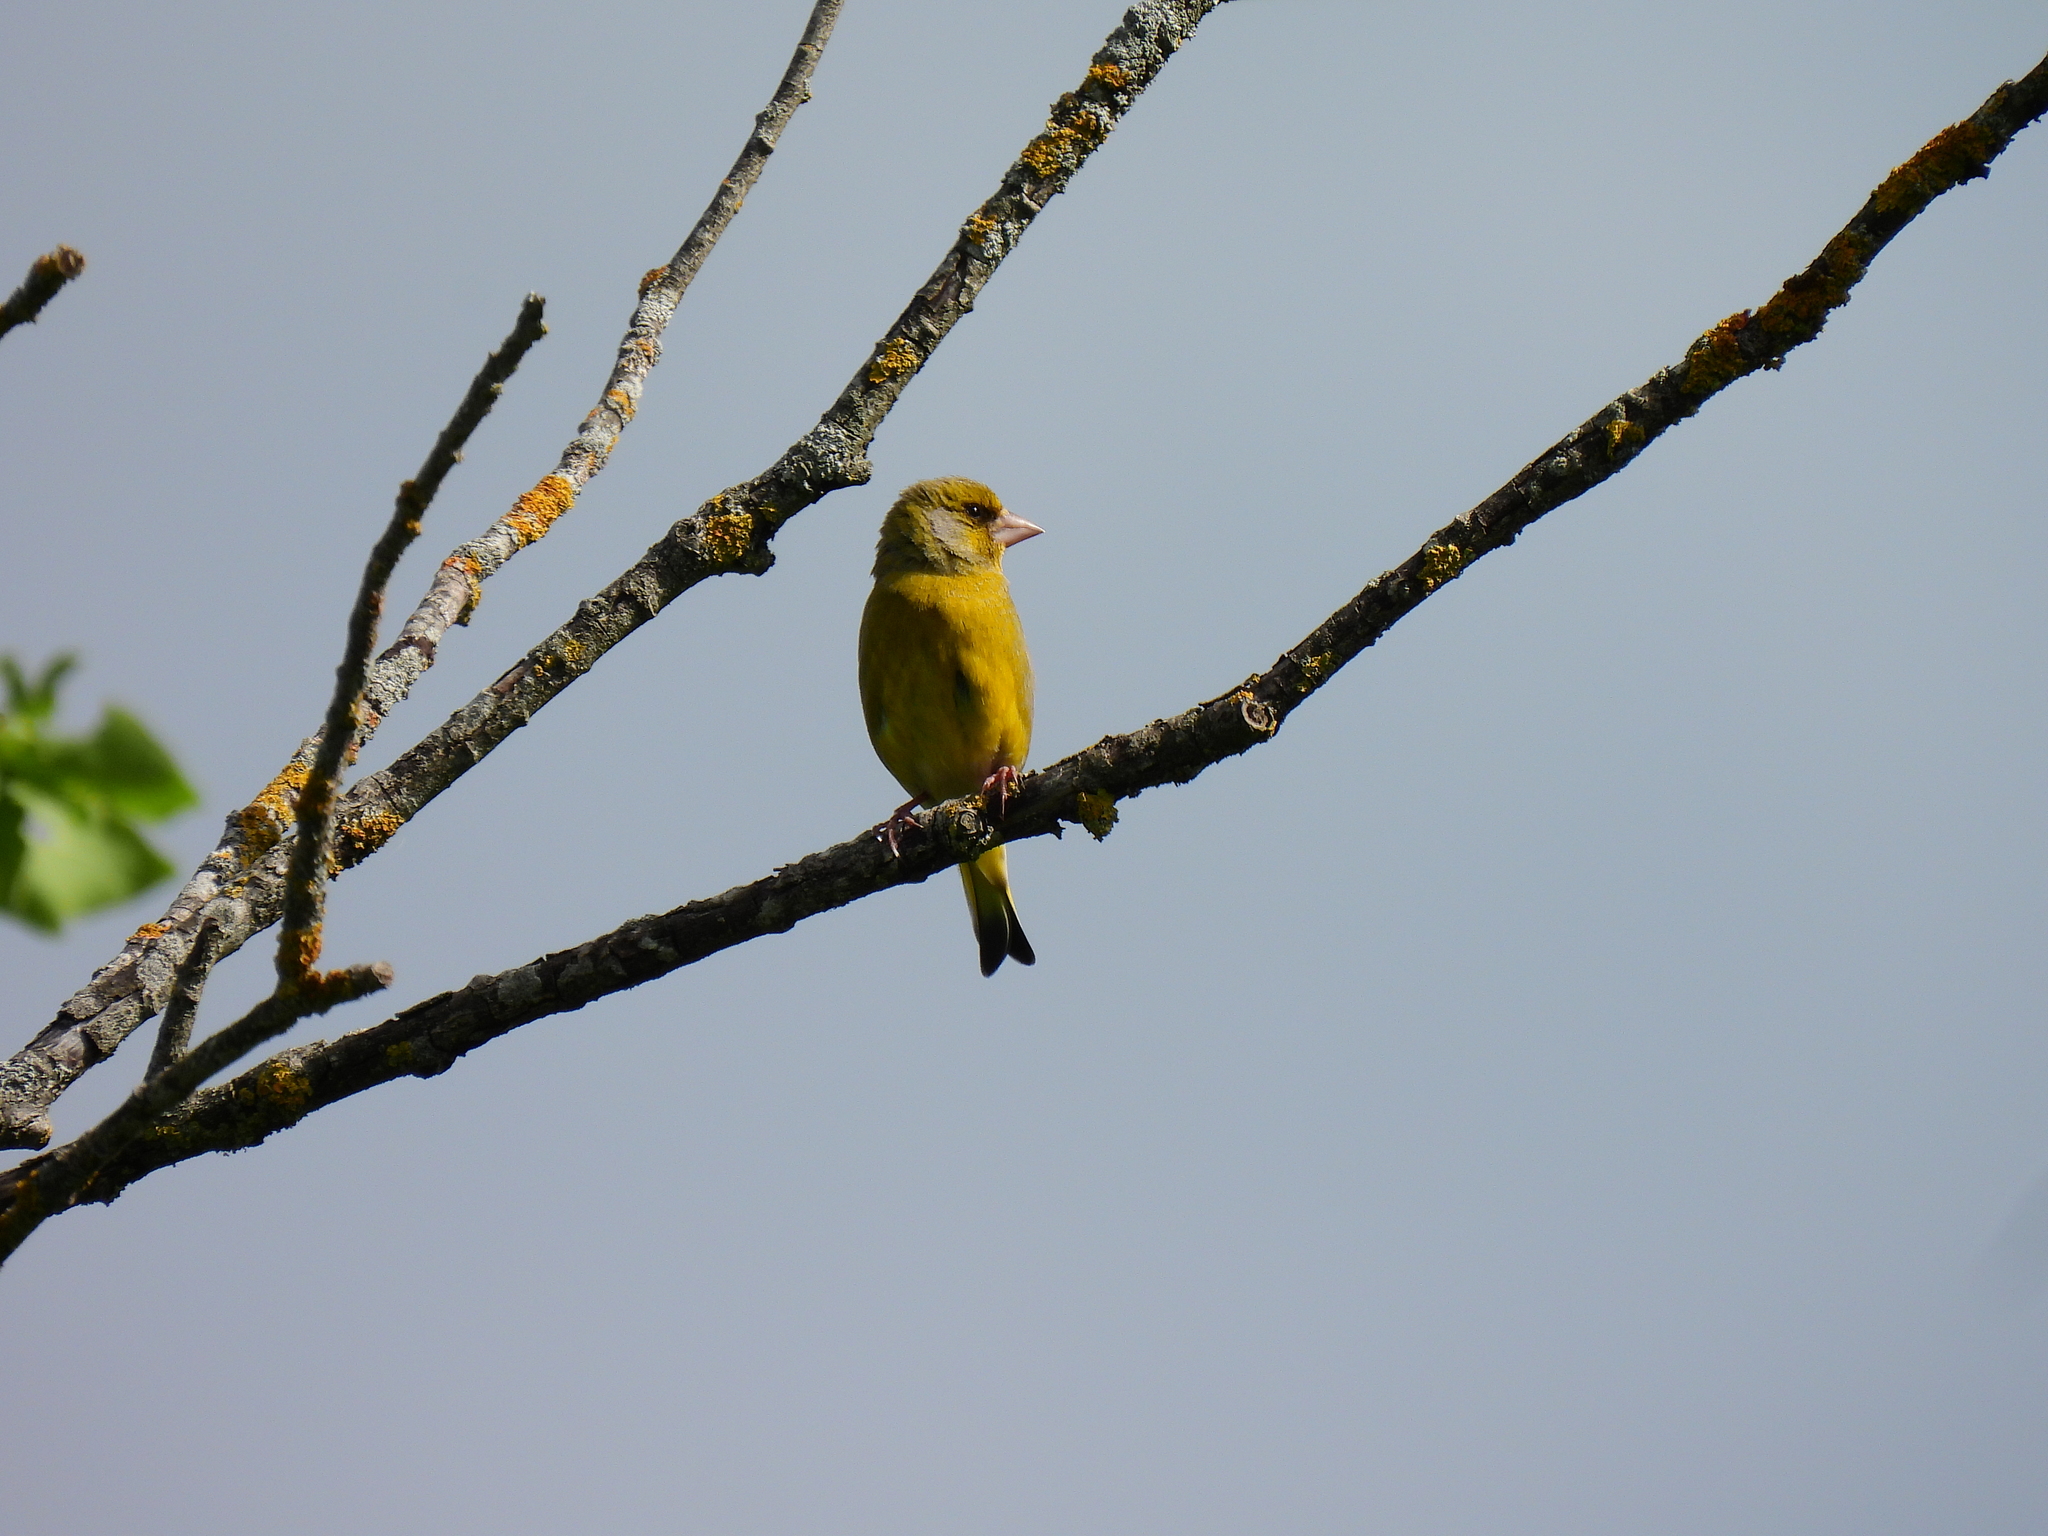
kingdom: Plantae
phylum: Tracheophyta
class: Liliopsida
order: Poales
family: Poaceae
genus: Chloris
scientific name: Chloris chloris
